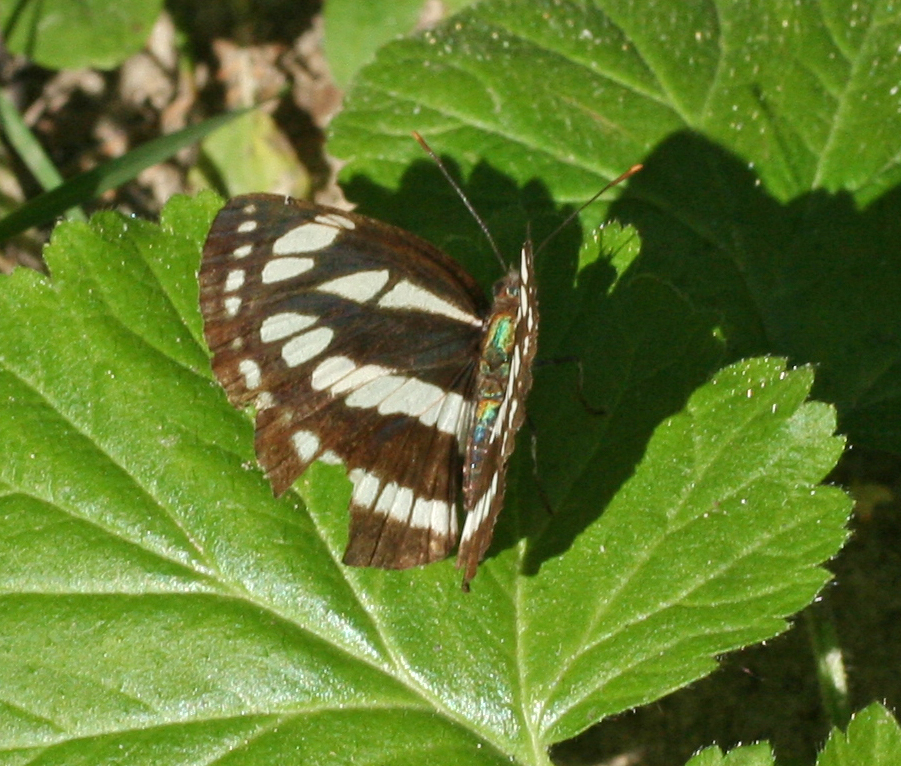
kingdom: Animalia
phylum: Arthropoda
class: Insecta
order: Lepidoptera
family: Nymphalidae
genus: Neptis
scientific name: Neptis sappho
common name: Common glider
